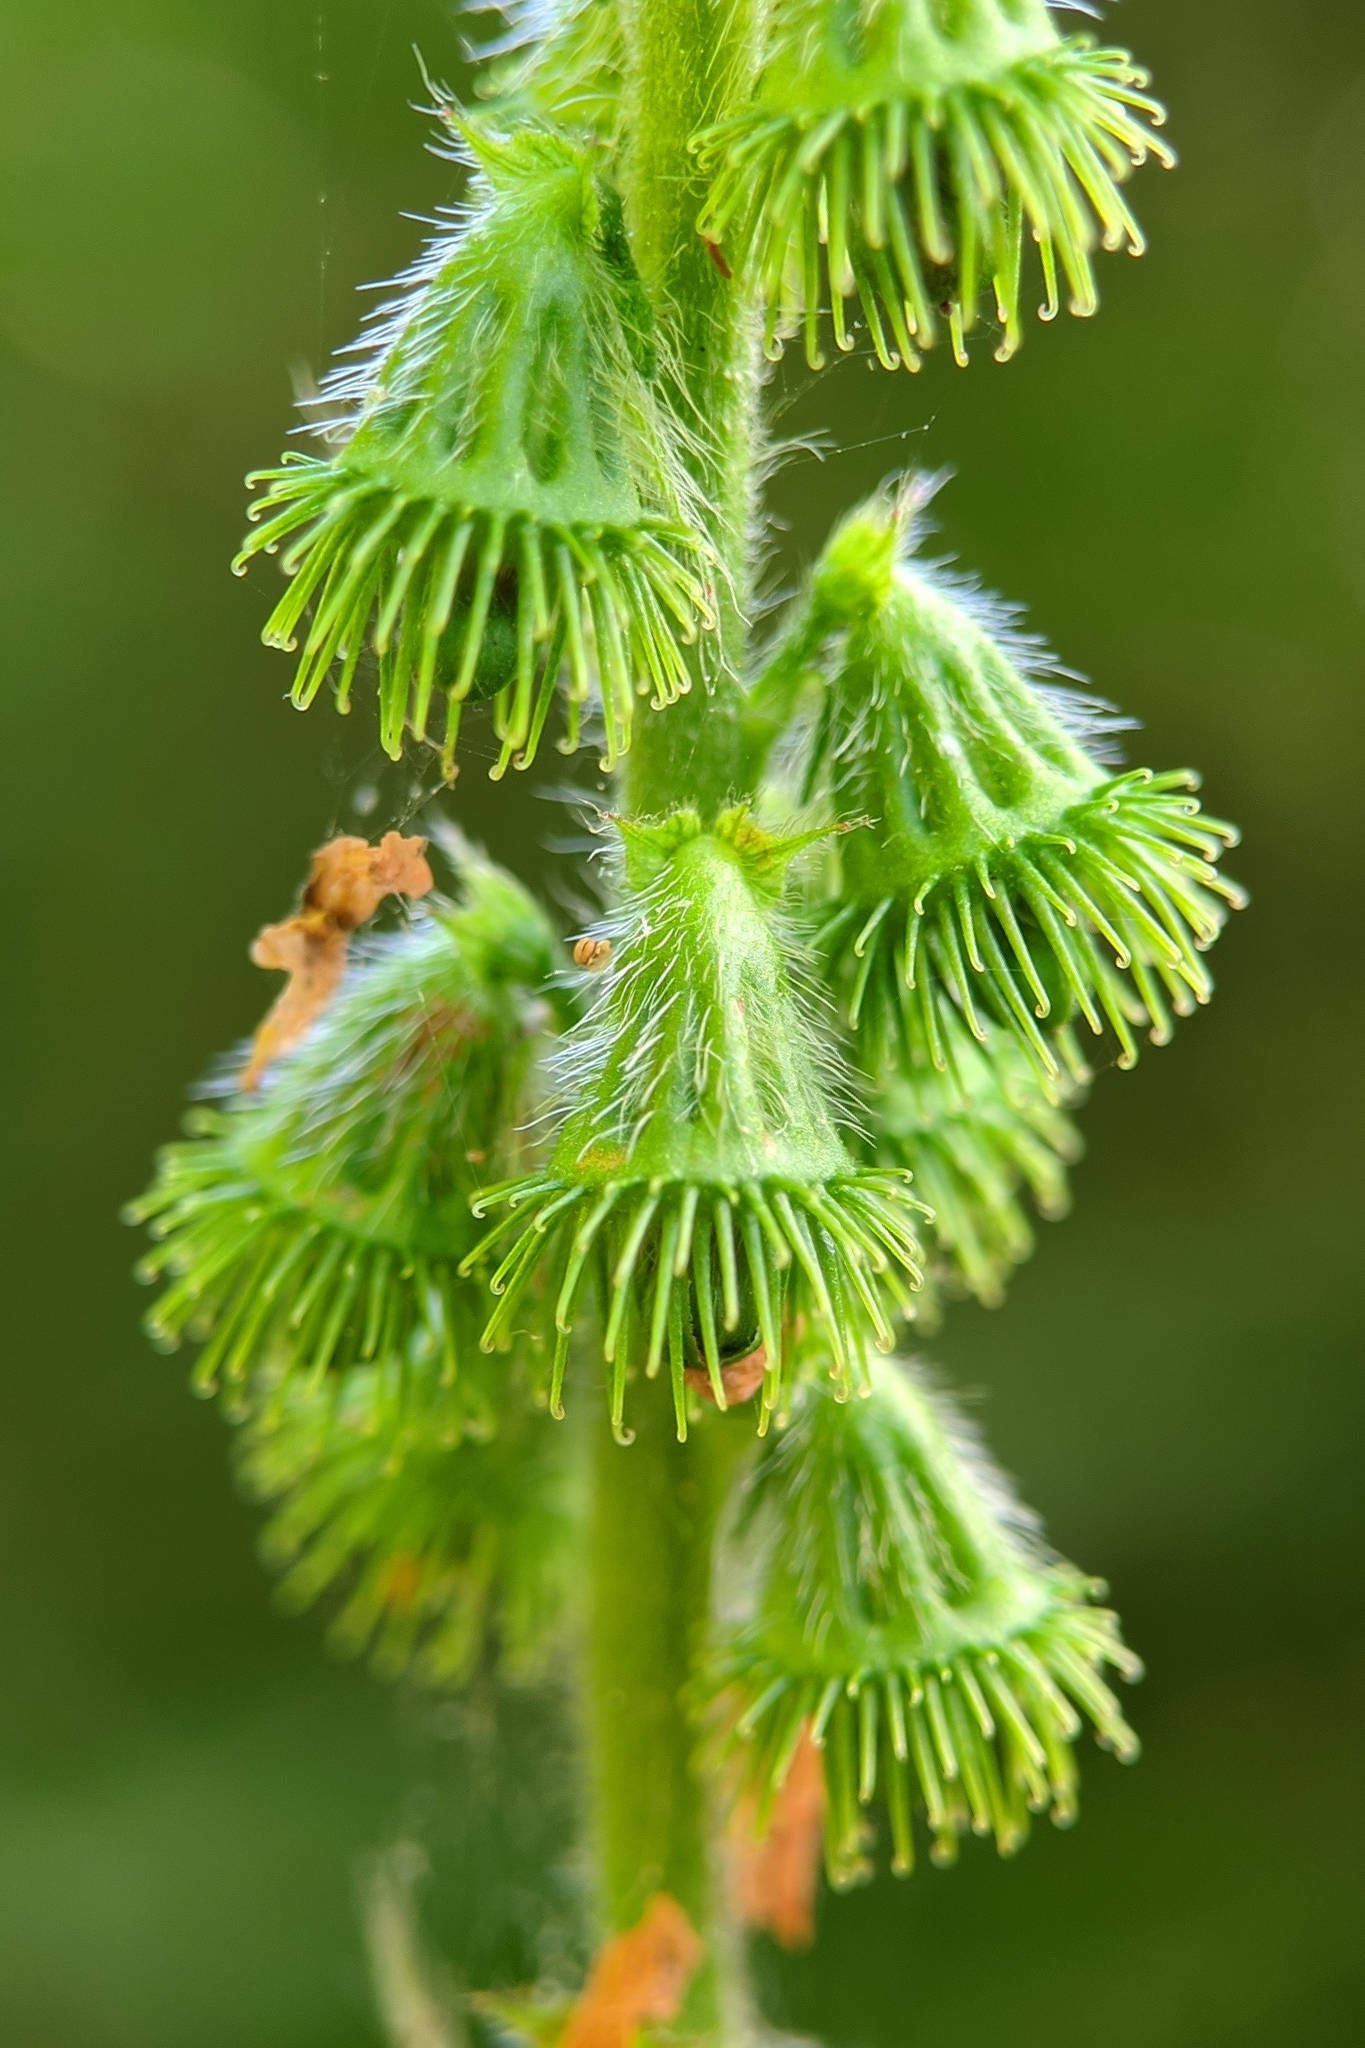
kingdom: Plantae
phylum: Tracheophyta
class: Magnoliopsida
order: Rosales
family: Rosaceae
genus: Agrimonia
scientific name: Agrimonia eupatoria
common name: Agrimony
